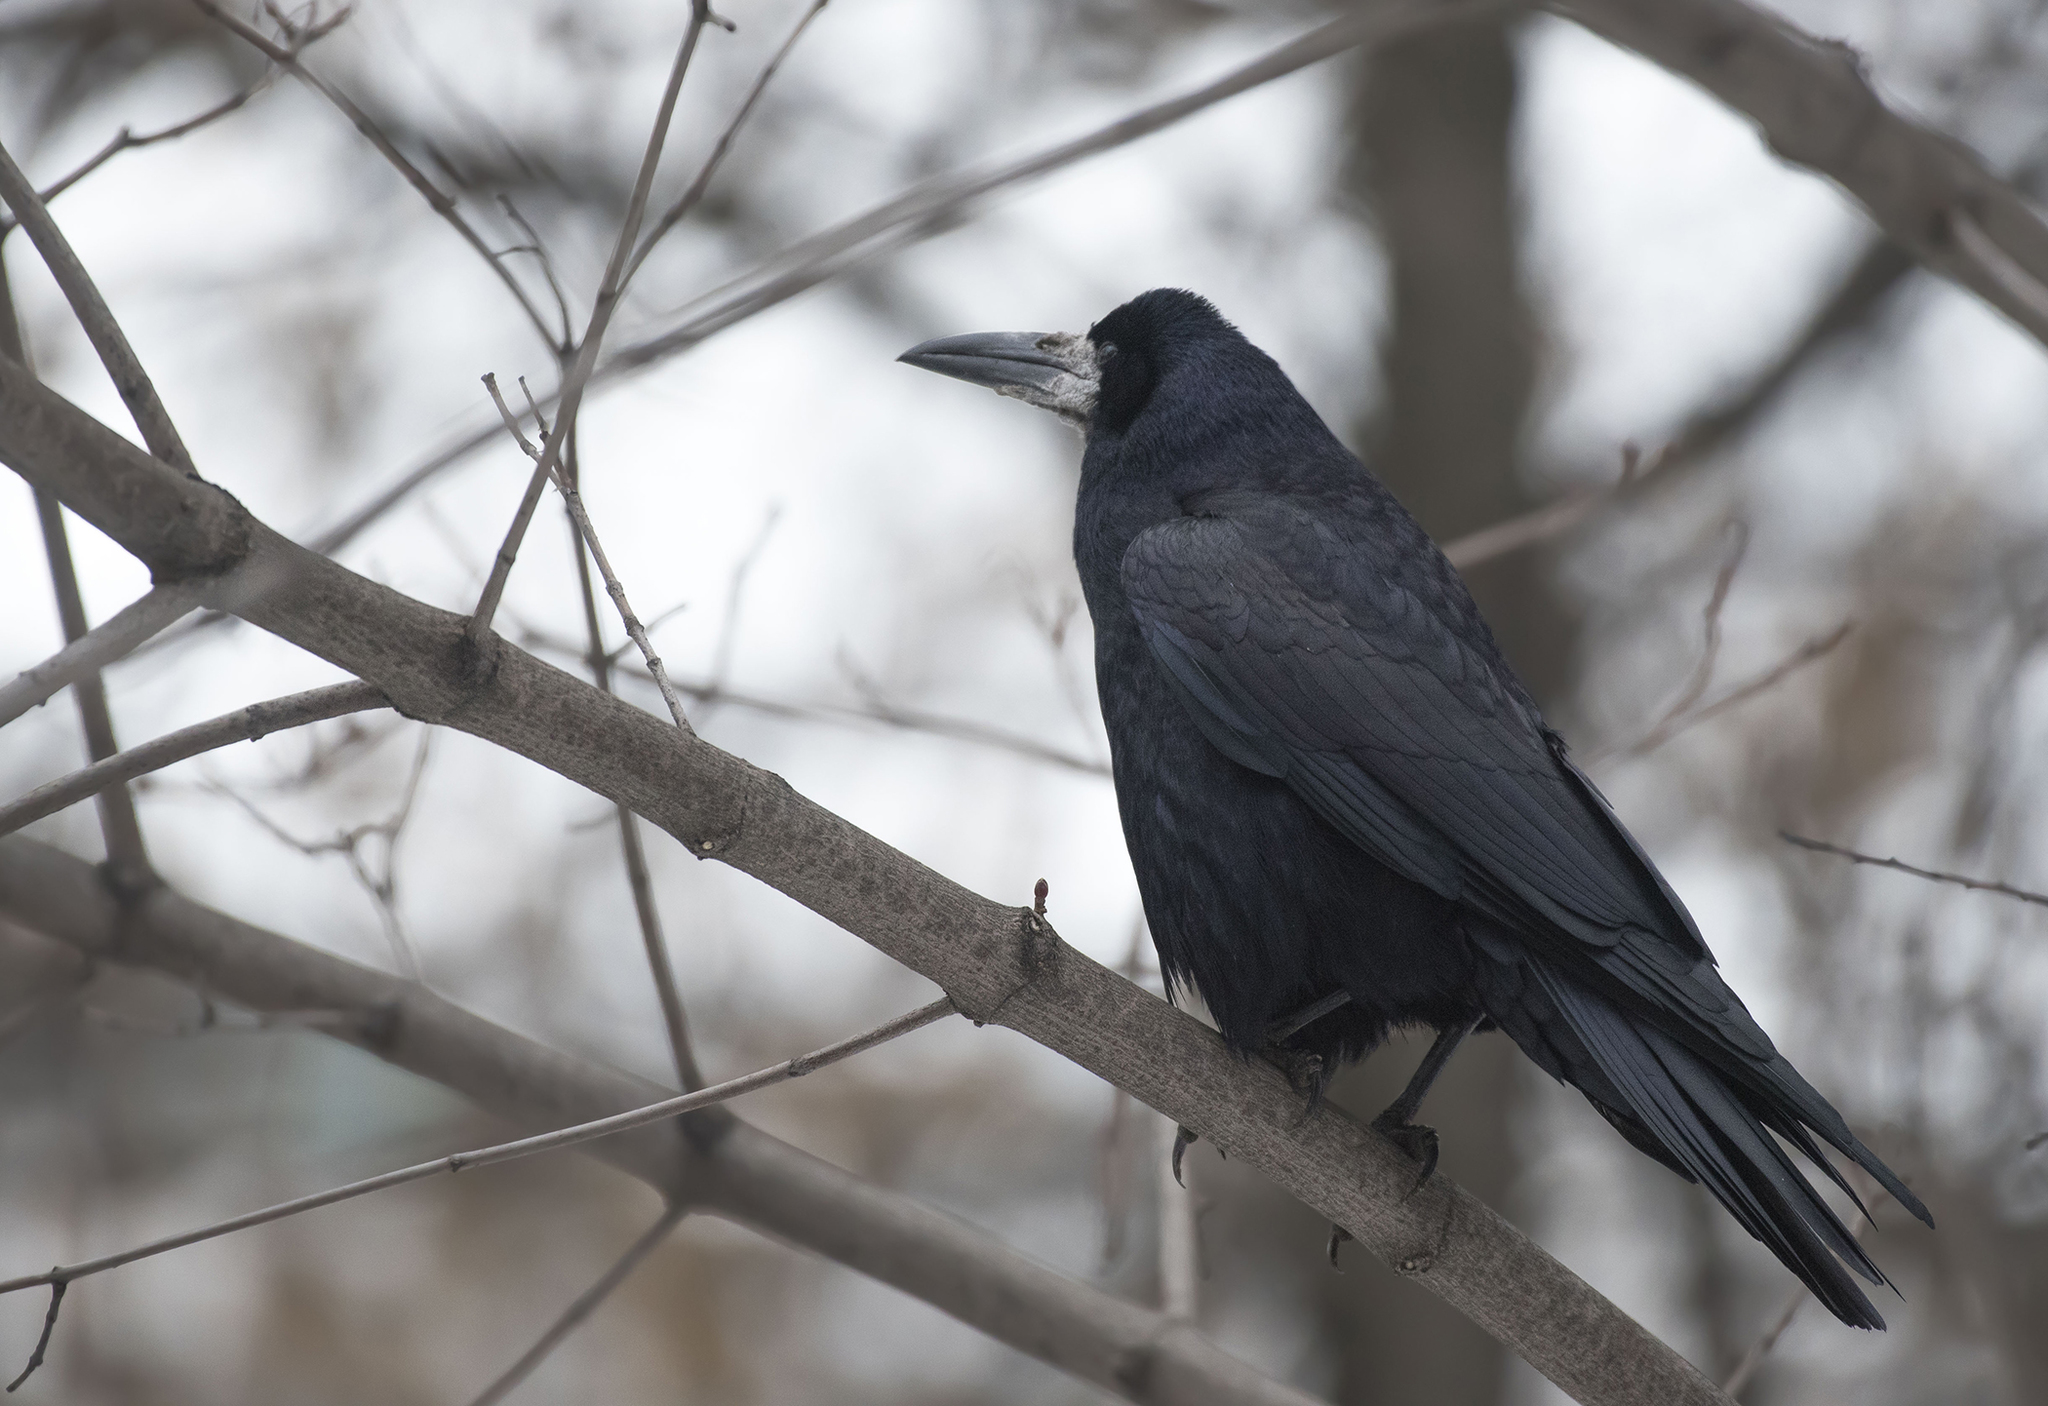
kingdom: Animalia
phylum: Chordata
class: Aves
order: Passeriformes
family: Corvidae
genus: Corvus
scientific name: Corvus frugilegus
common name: Rook
